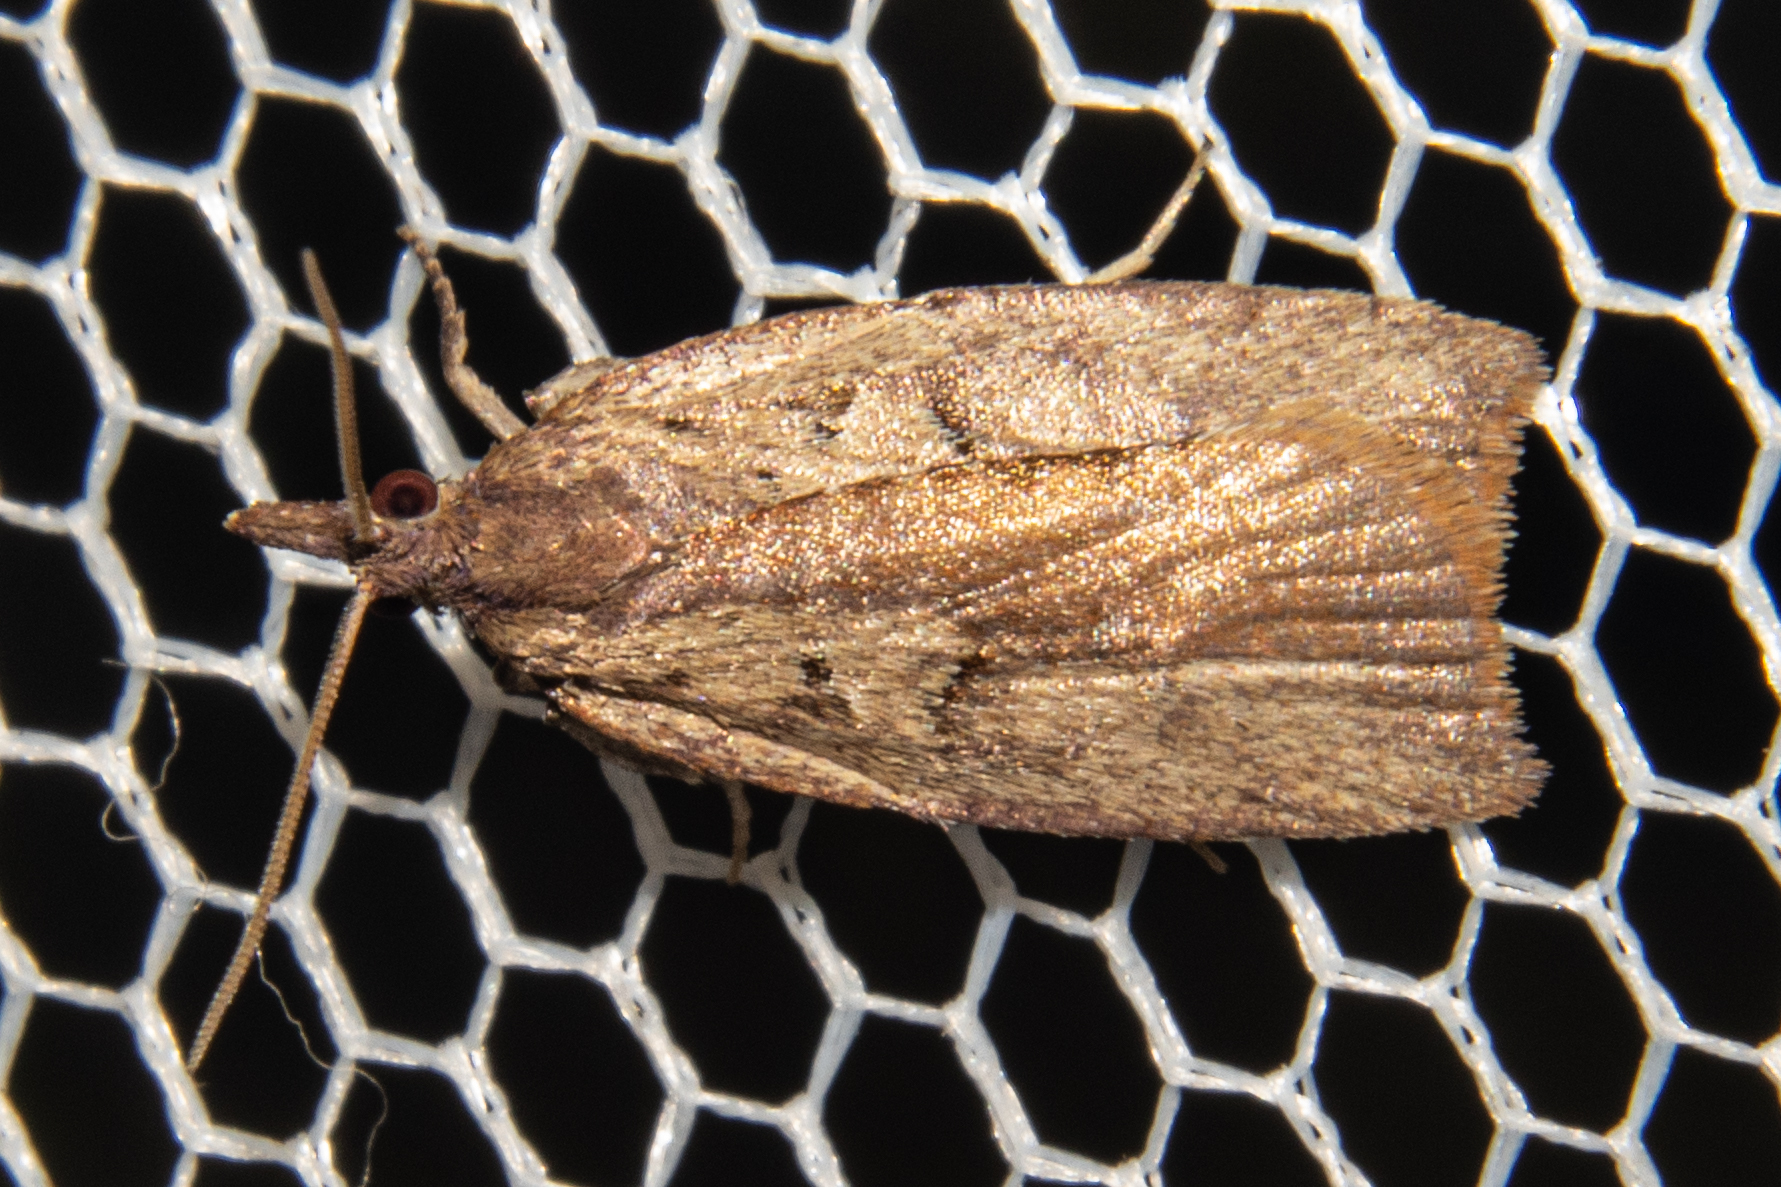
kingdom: Animalia
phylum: Arthropoda
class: Insecta
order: Lepidoptera
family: Tortricidae
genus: Planotortrix
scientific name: Planotortrix notophaea
